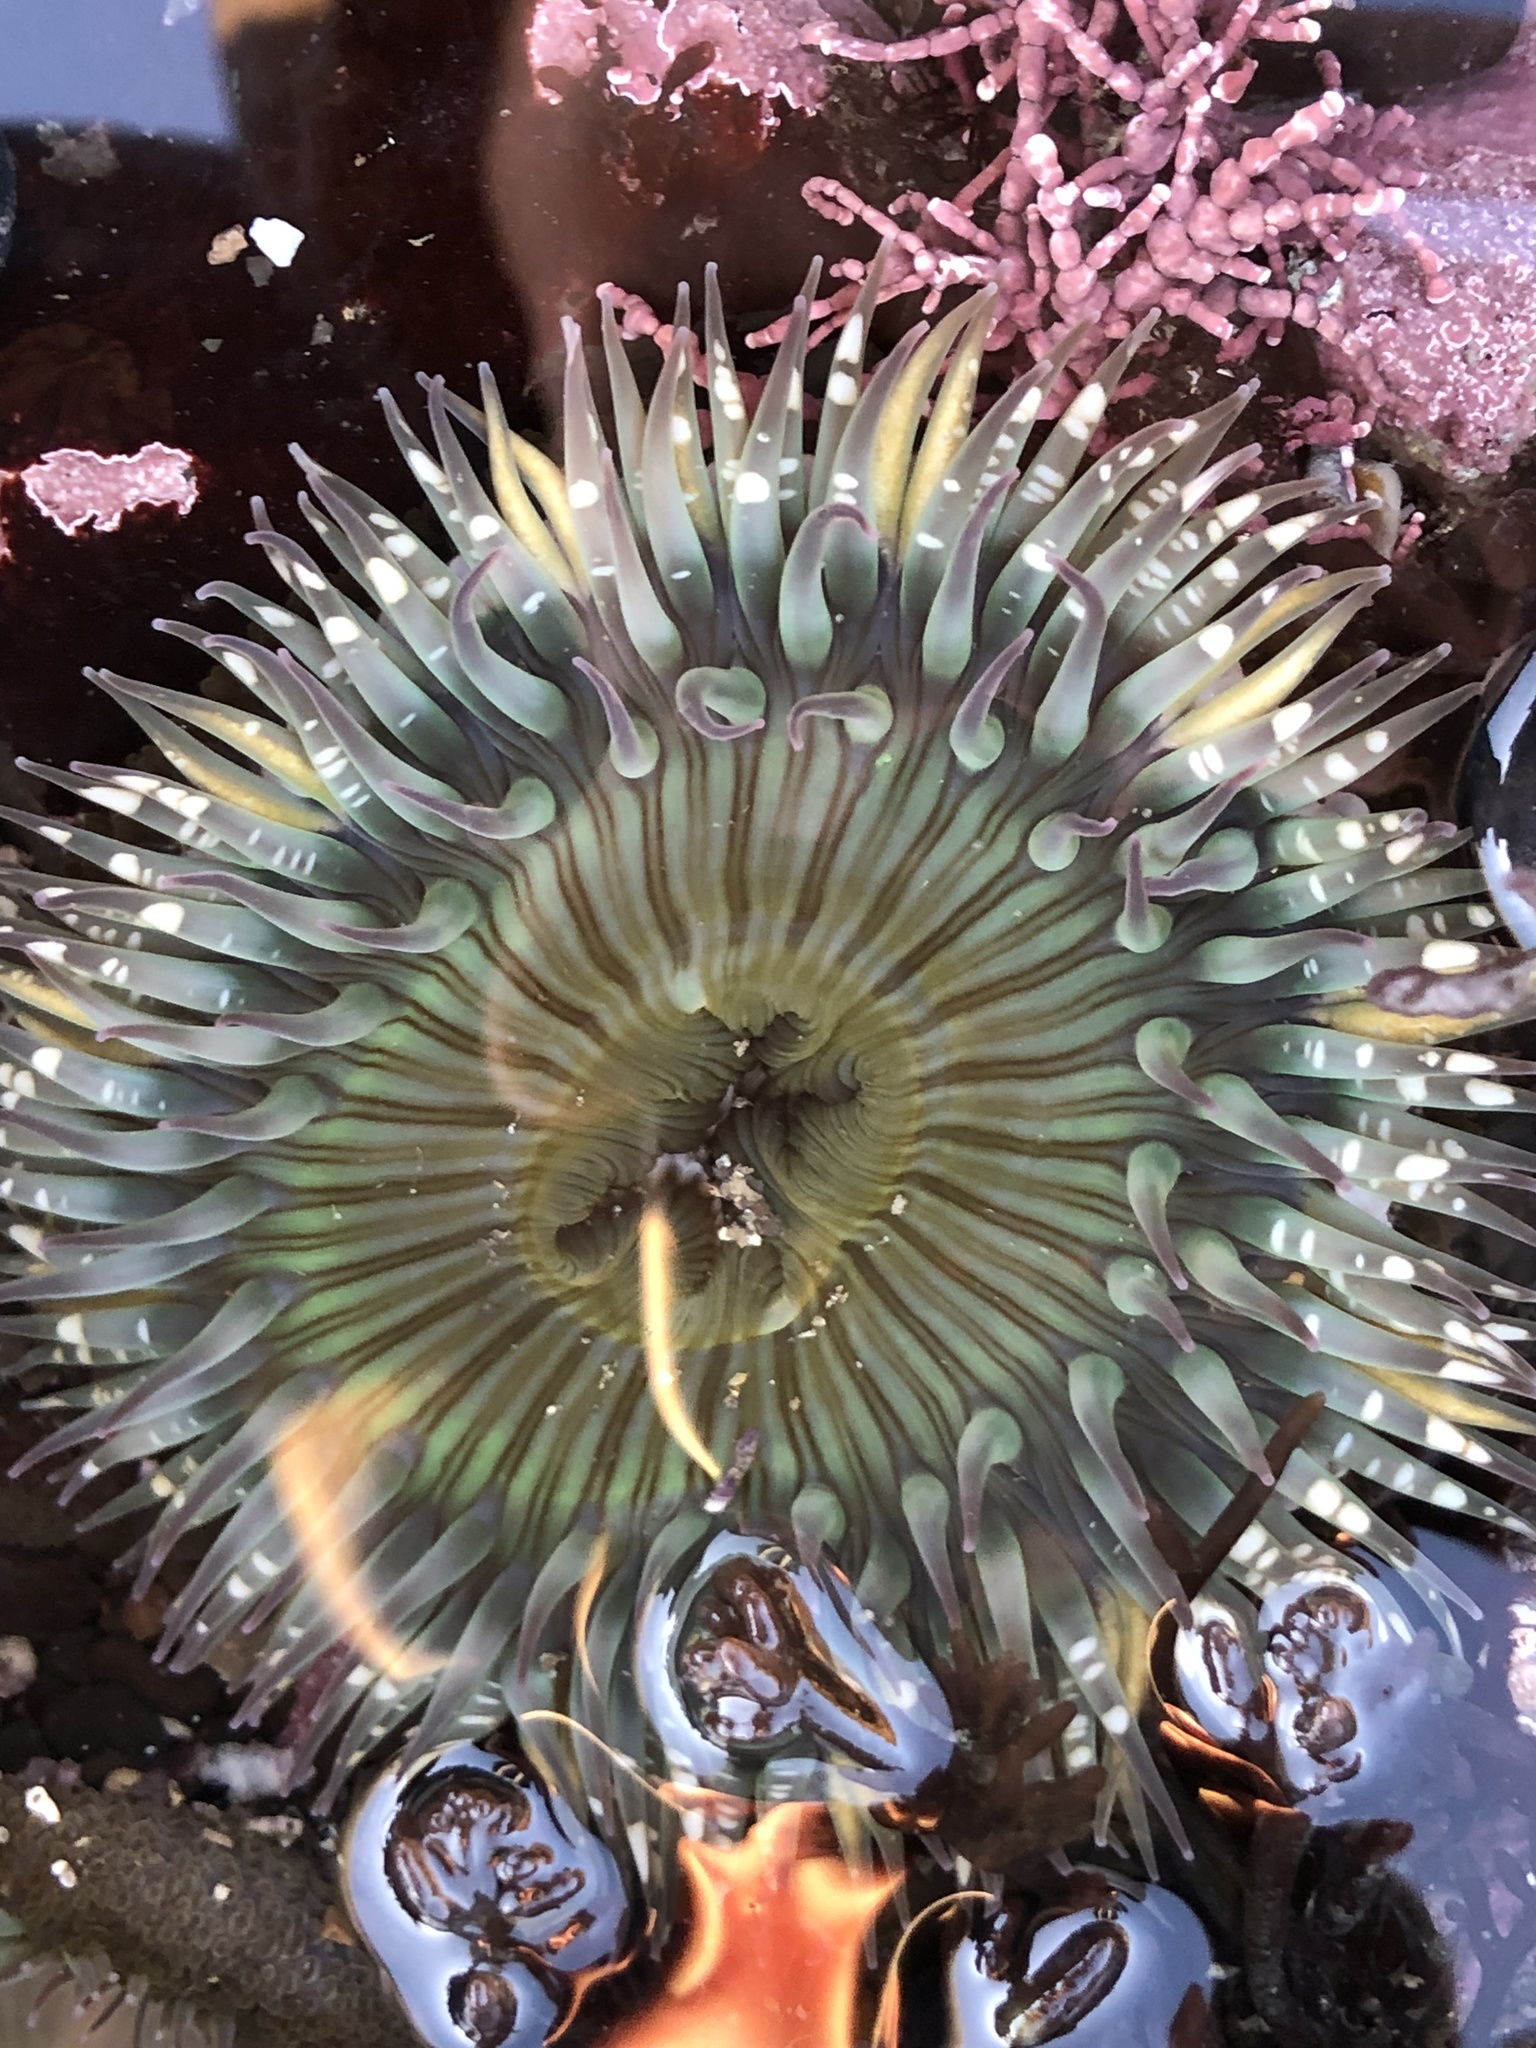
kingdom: Animalia
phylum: Cnidaria
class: Anthozoa
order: Actiniaria
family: Actiniidae
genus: Anthopleura
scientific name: Anthopleura sola
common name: Sun anemone
